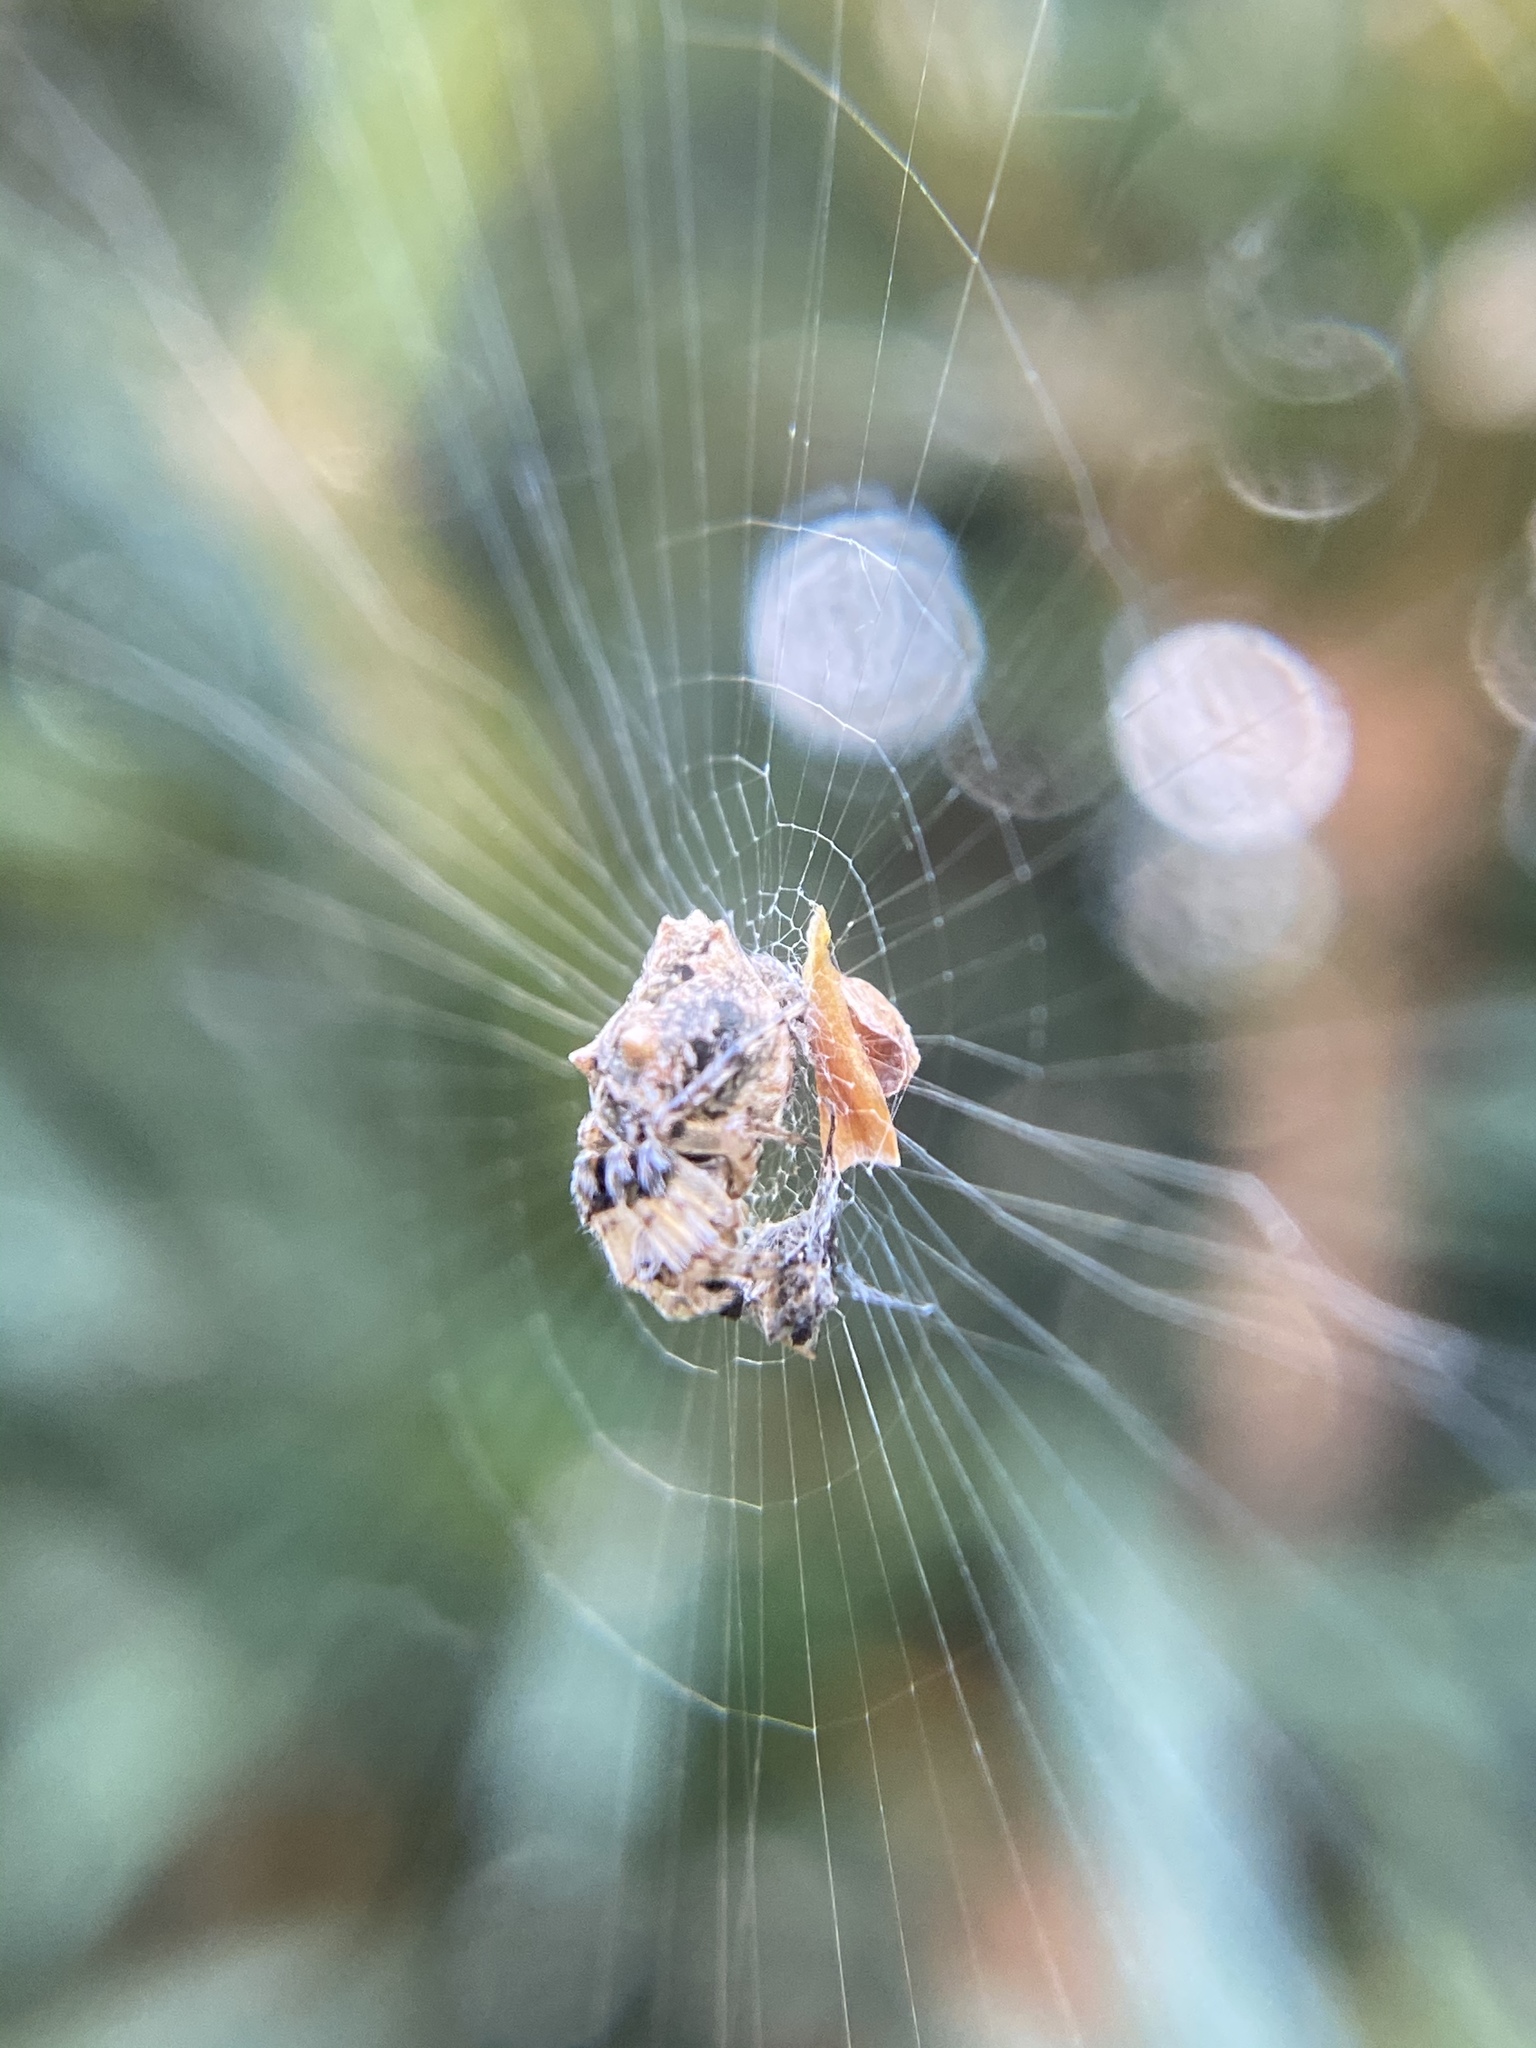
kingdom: Animalia
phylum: Arthropoda
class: Arachnida
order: Araneae
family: Araneidae
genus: Cyclosa
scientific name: Cyclosa walckenaeri
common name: Orb weavers
